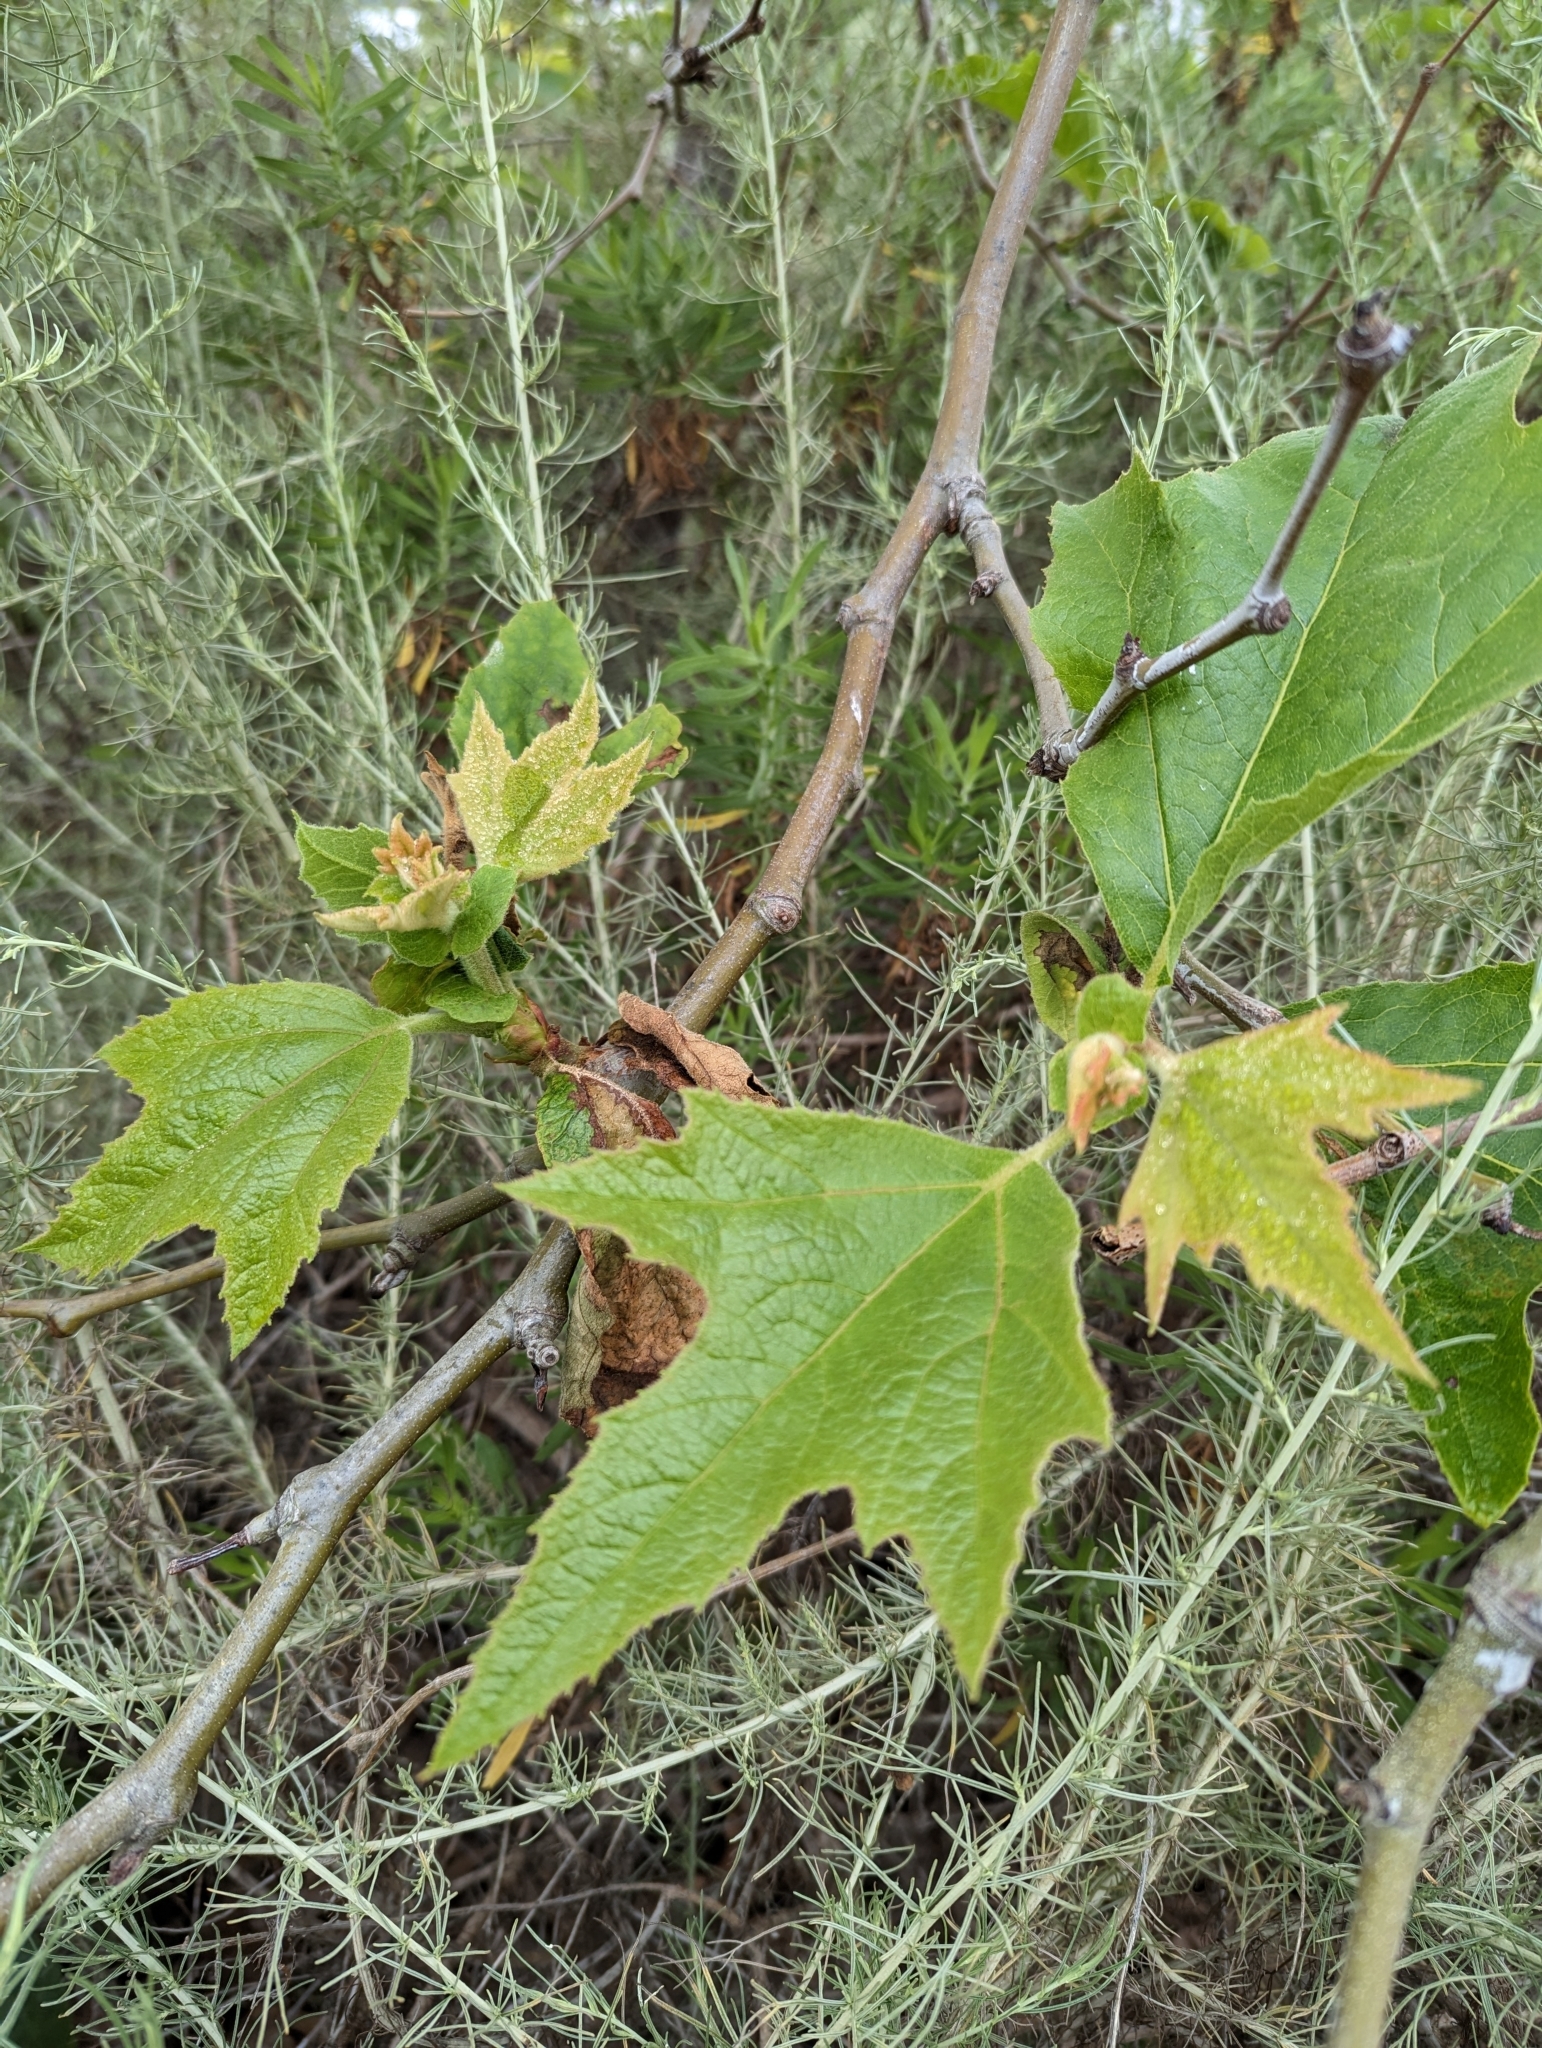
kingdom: Plantae
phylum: Tracheophyta
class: Magnoliopsida
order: Proteales
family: Platanaceae
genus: Platanus
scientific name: Platanus racemosa
